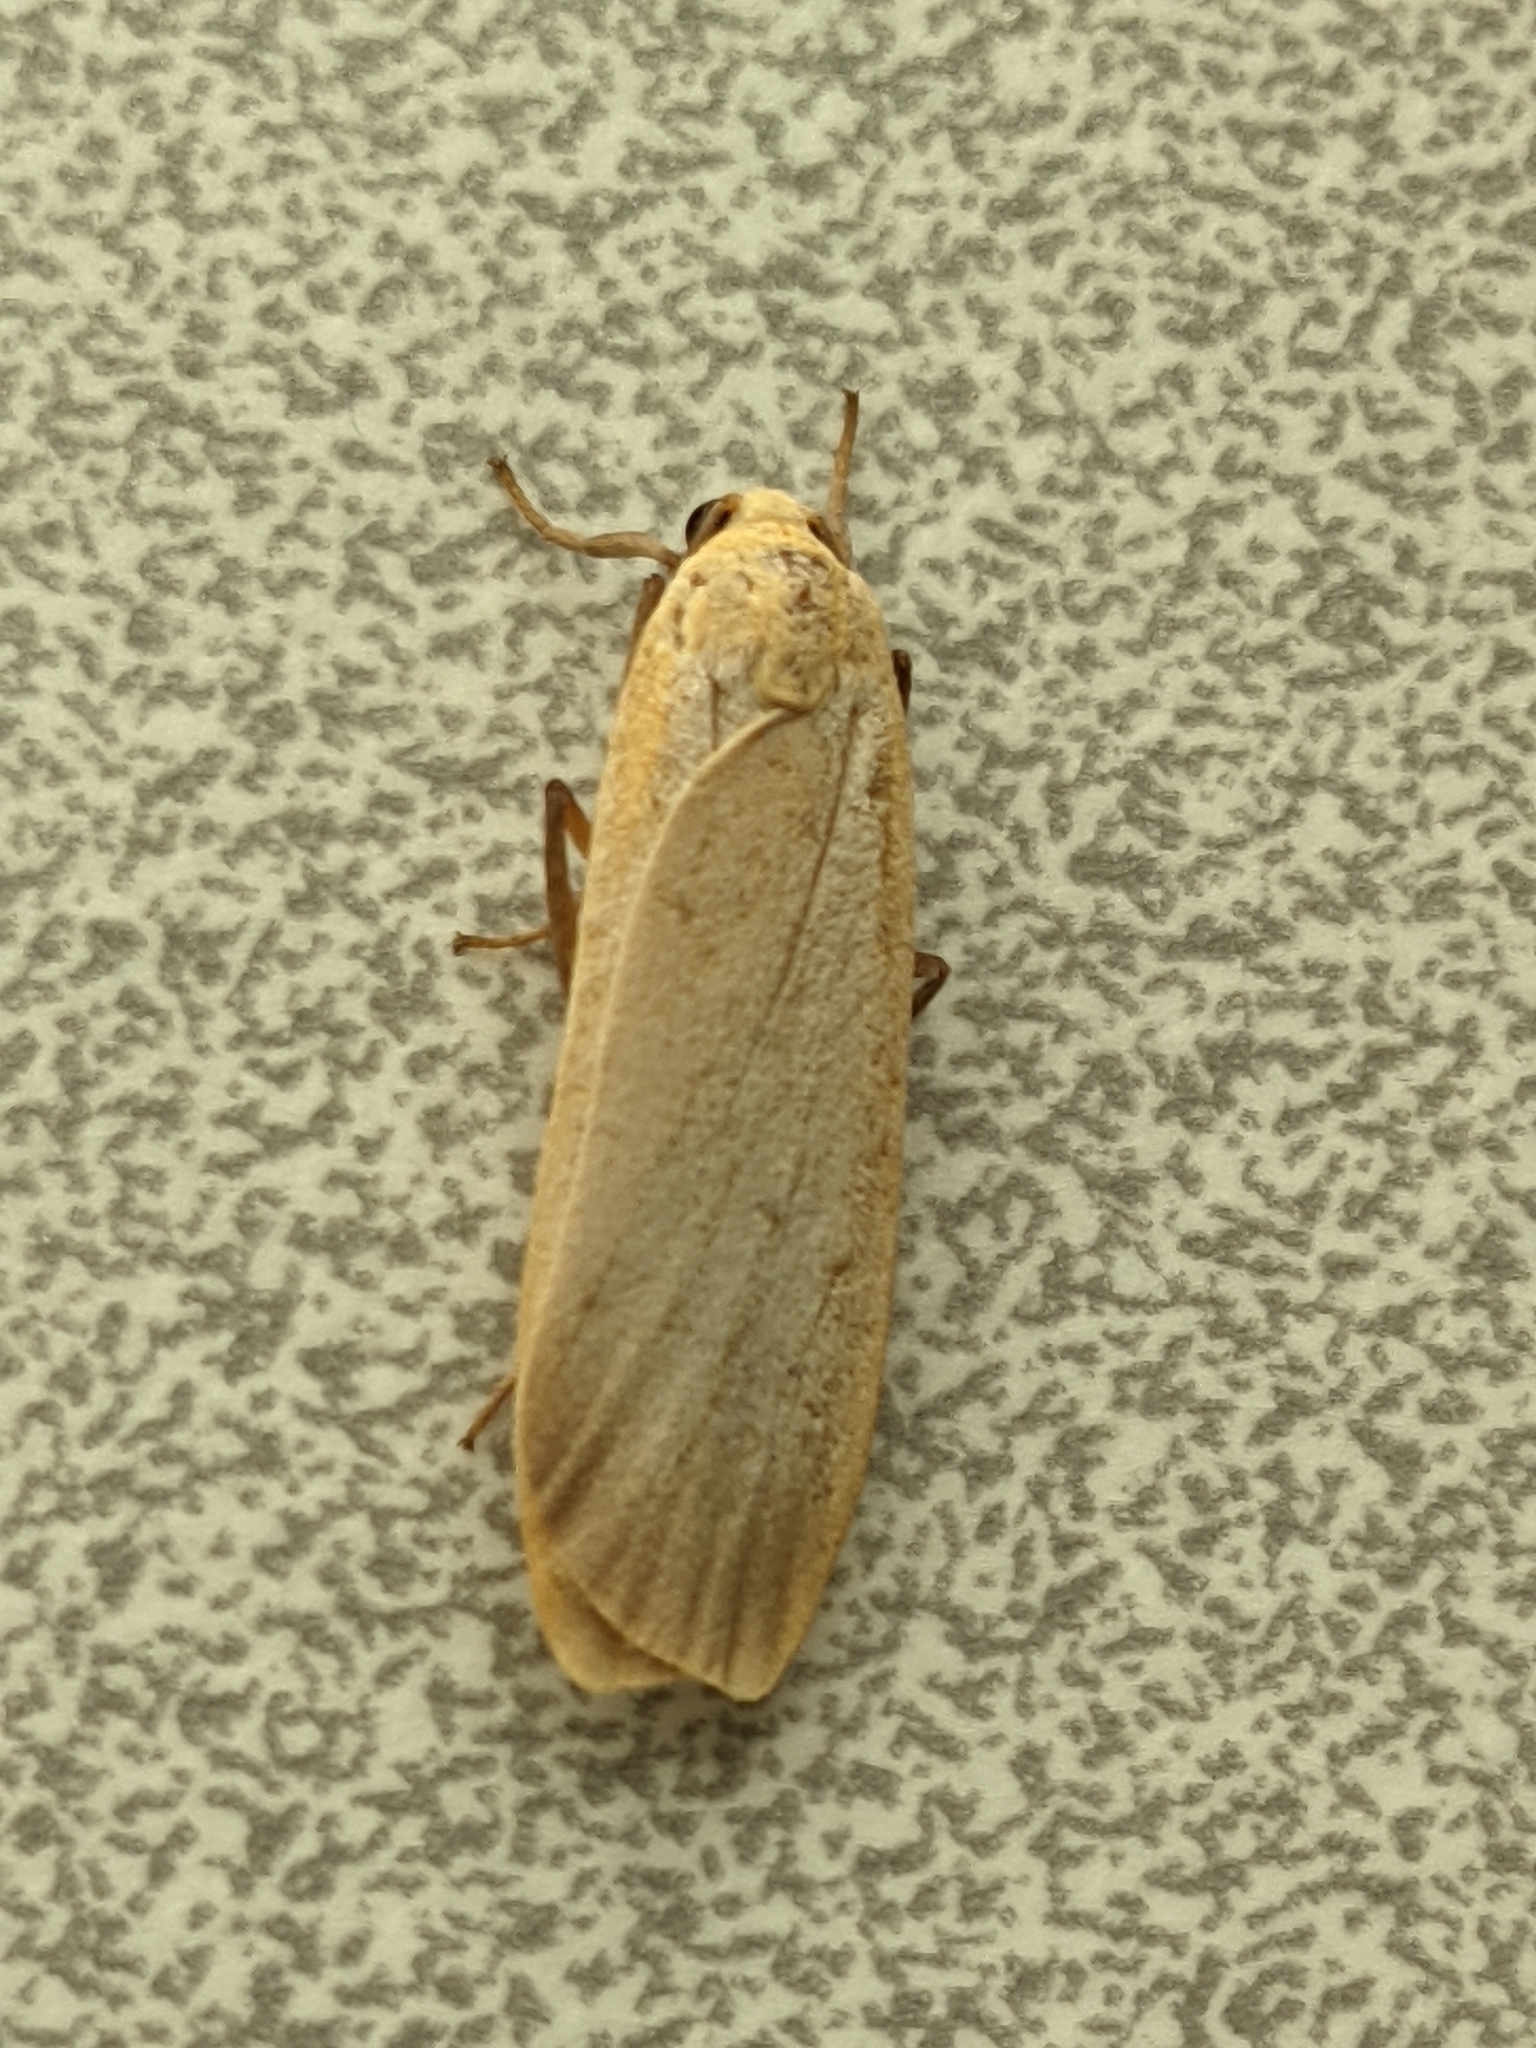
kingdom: Animalia
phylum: Arthropoda
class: Insecta
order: Lepidoptera
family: Erebidae
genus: Katha
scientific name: Katha depressa
